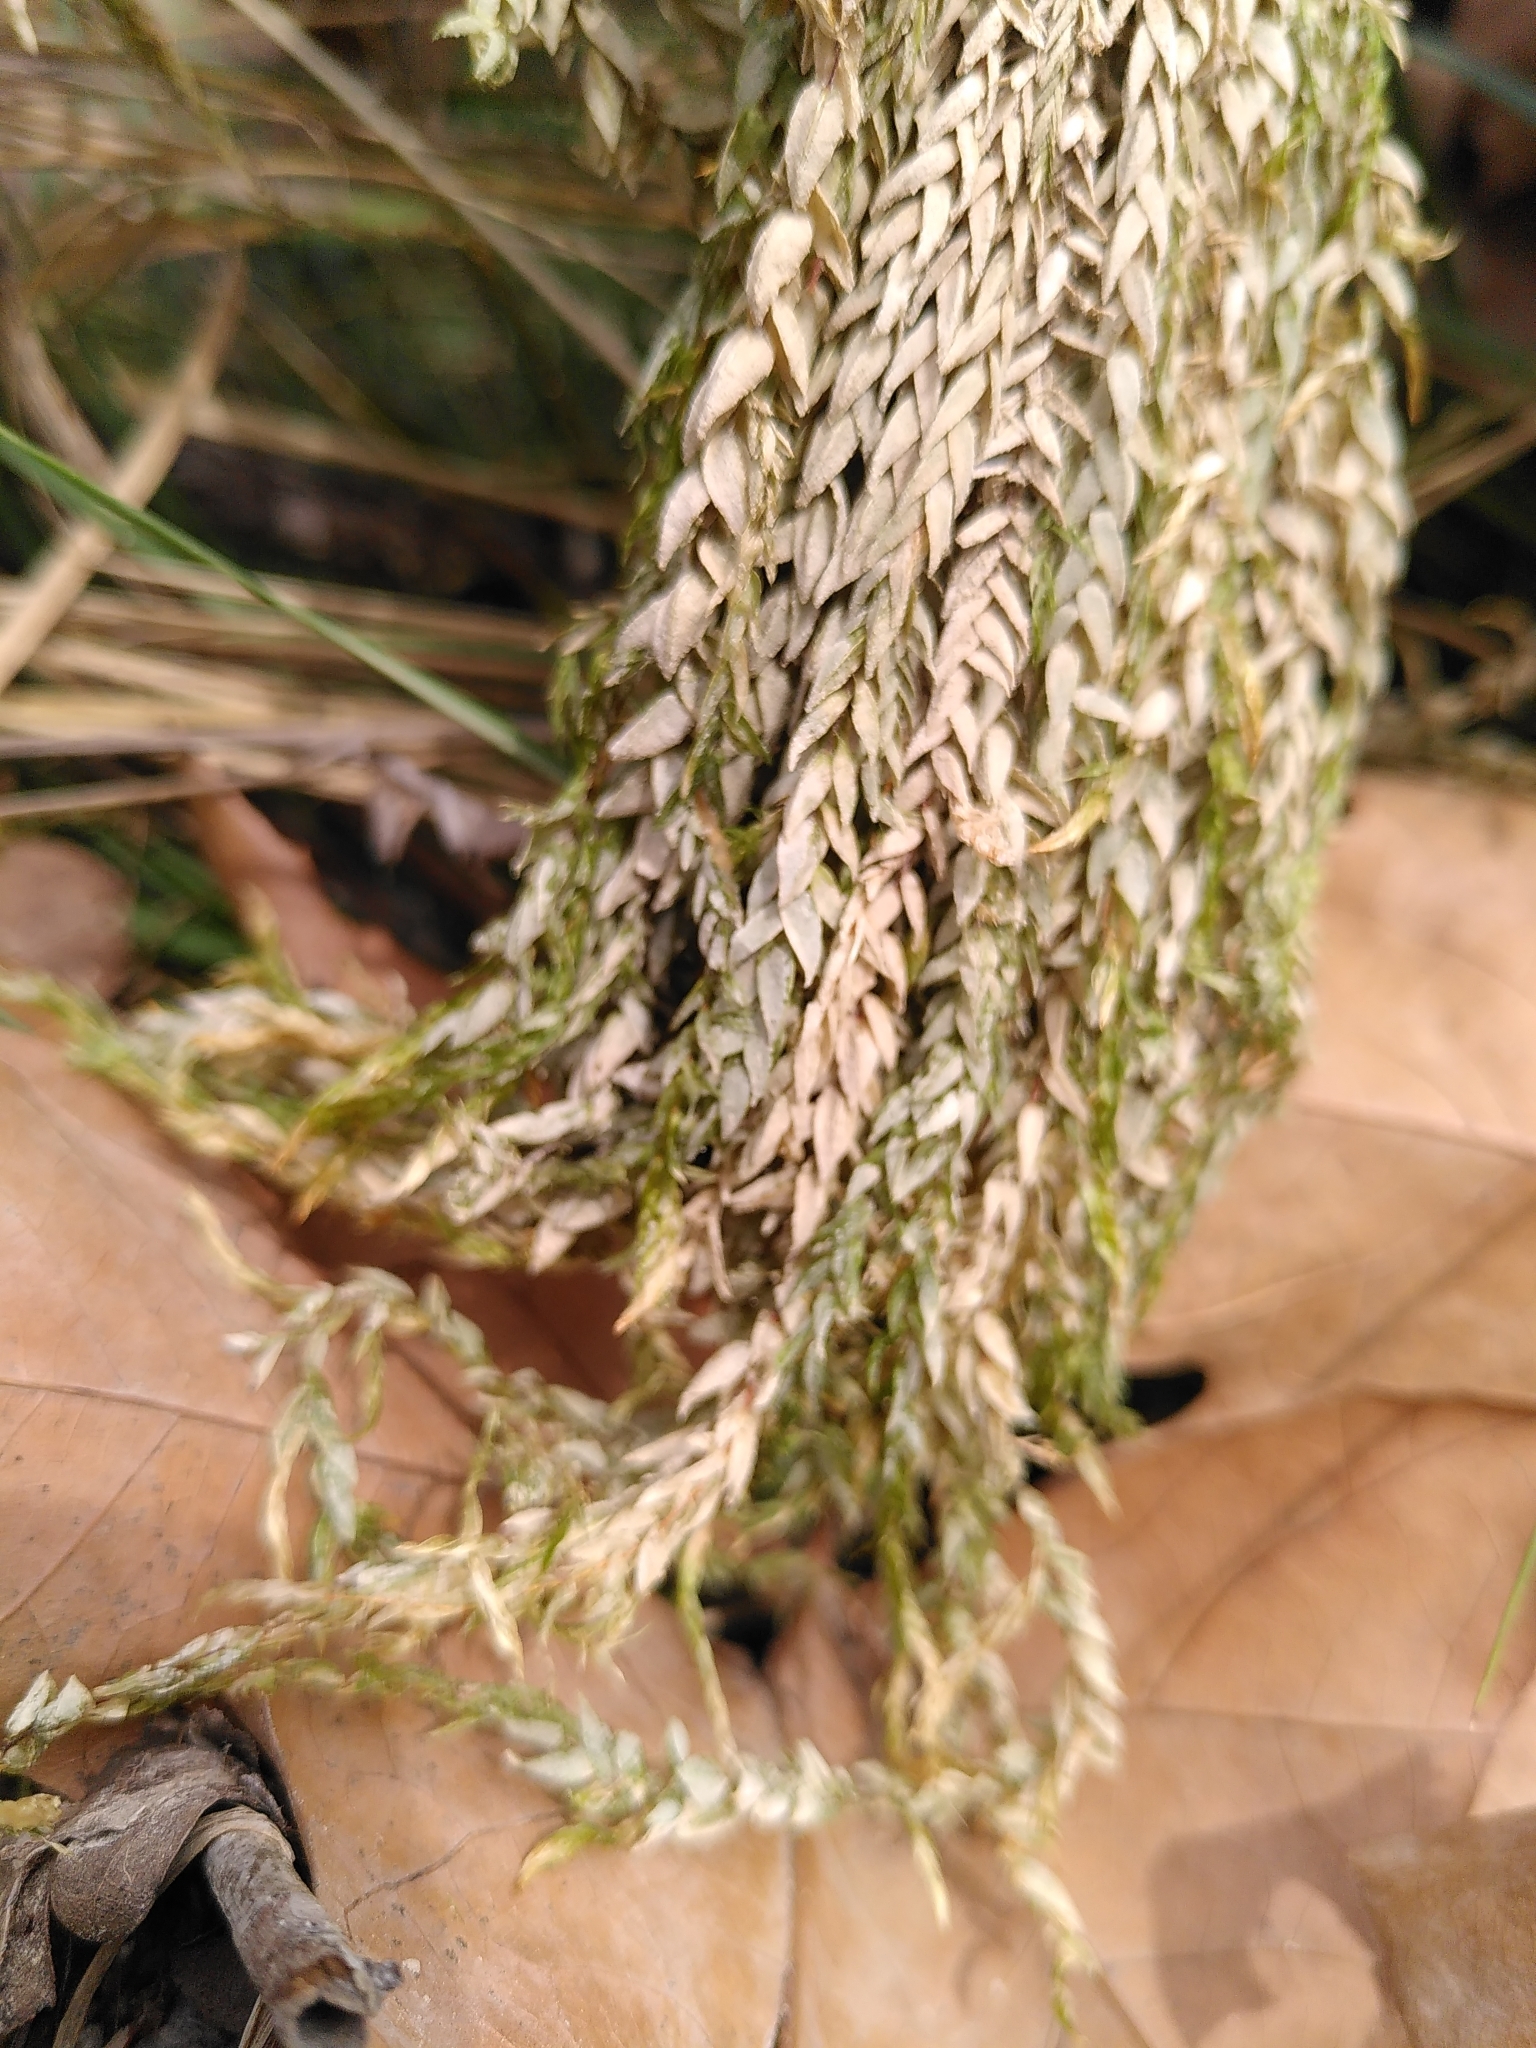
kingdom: Plantae
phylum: Bryophyta
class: Bryopsida
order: Hypnales
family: Fontinalaceae
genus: Fontinalis
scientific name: Fontinalis antipyretica
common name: Greater water-moss
